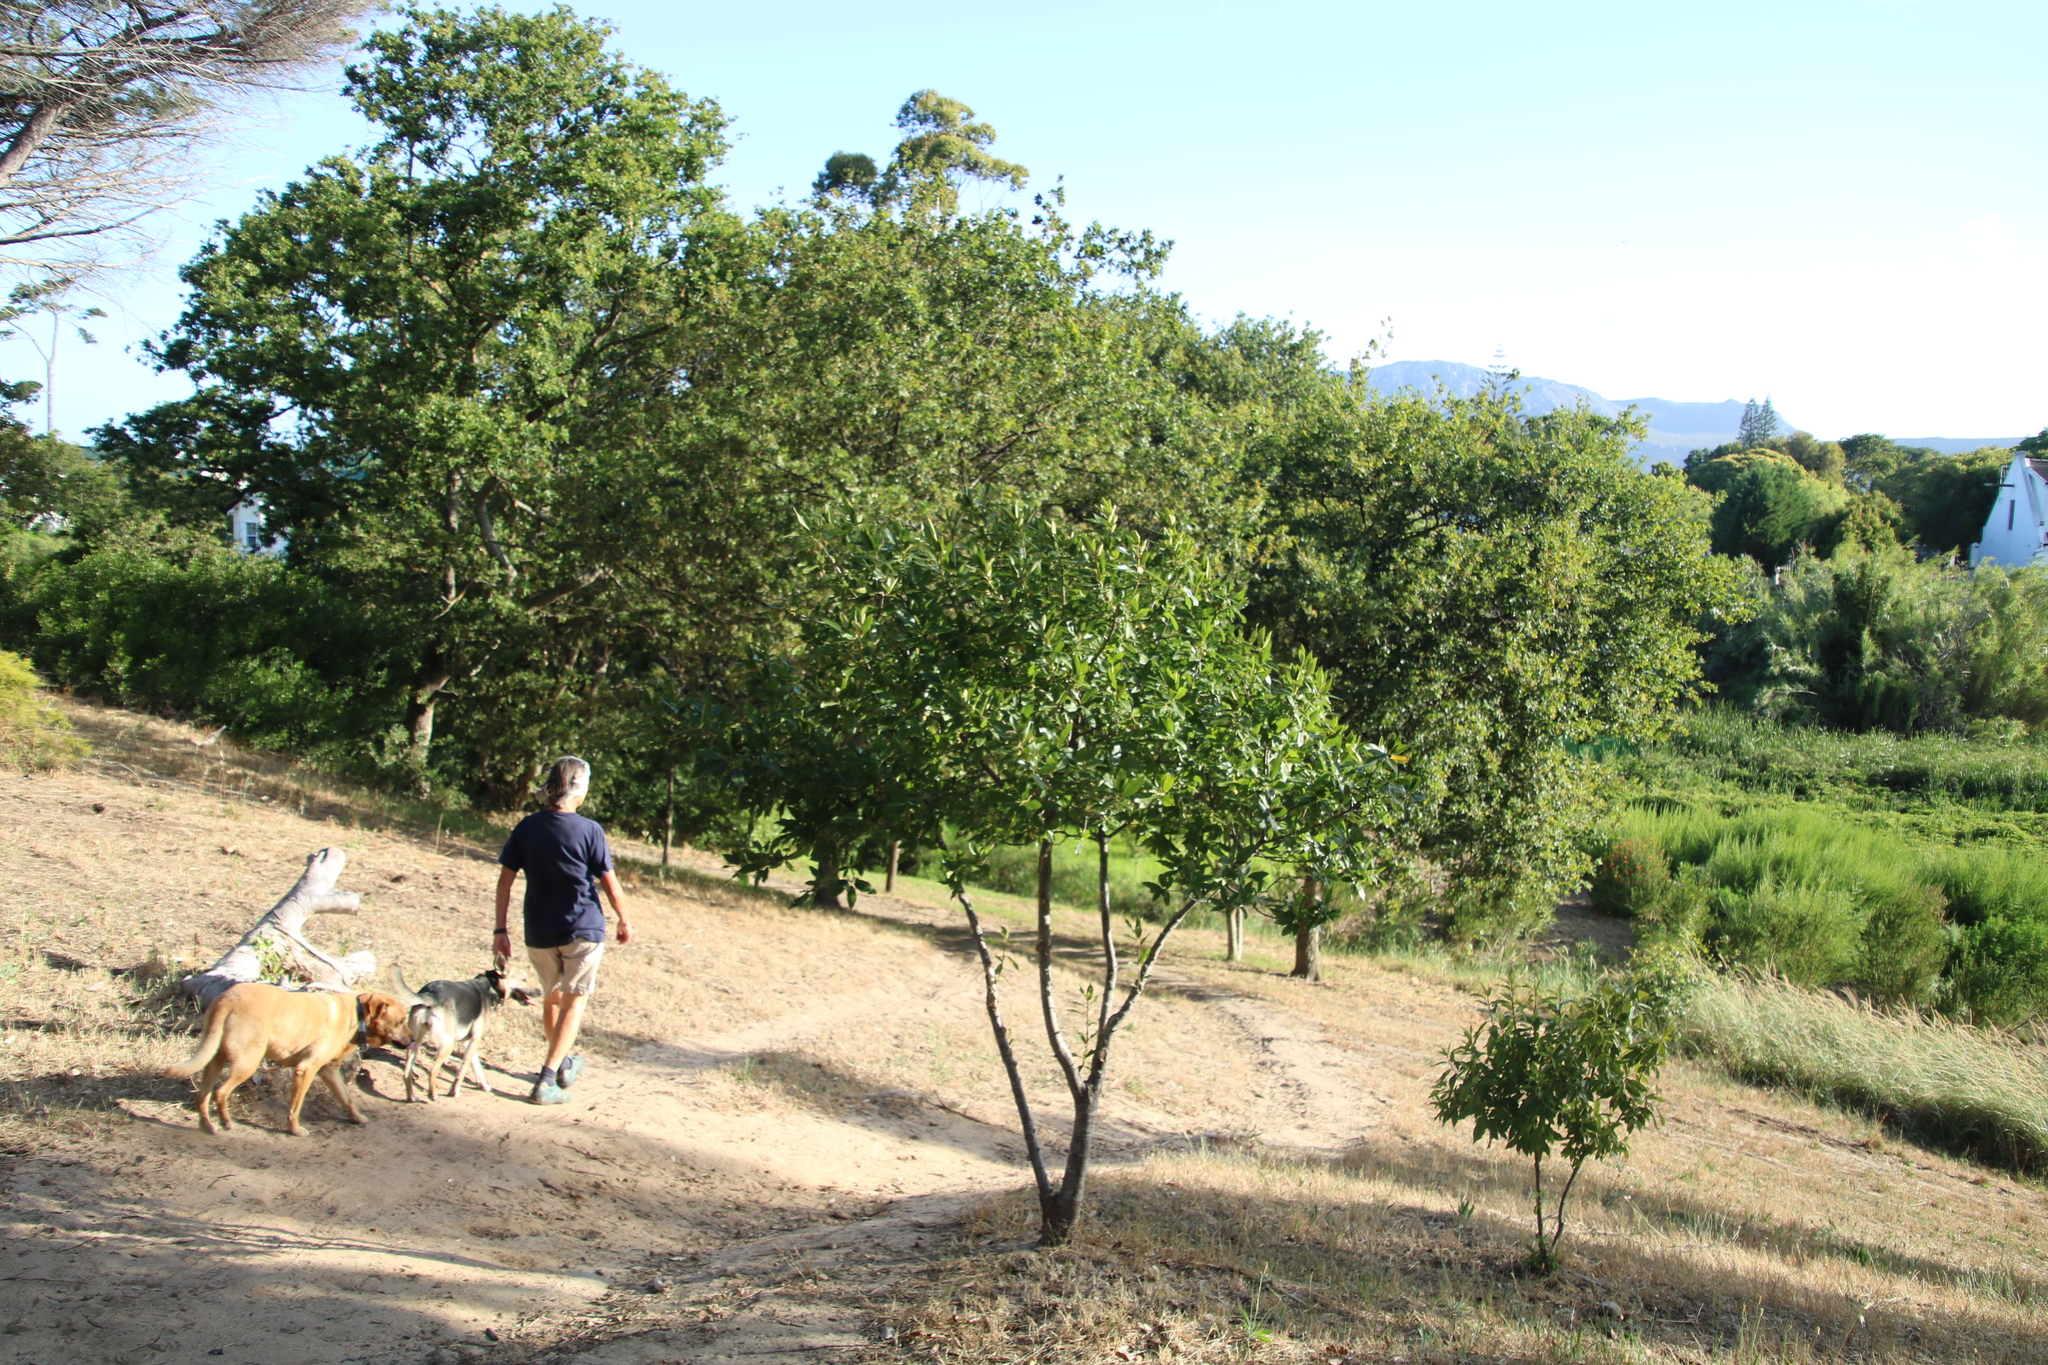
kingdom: Plantae
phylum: Tracheophyta
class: Magnoliopsida
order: Malpighiales
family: Achariaceae
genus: Kiggelaria
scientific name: Kiggelaria africana
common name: Wild peach
